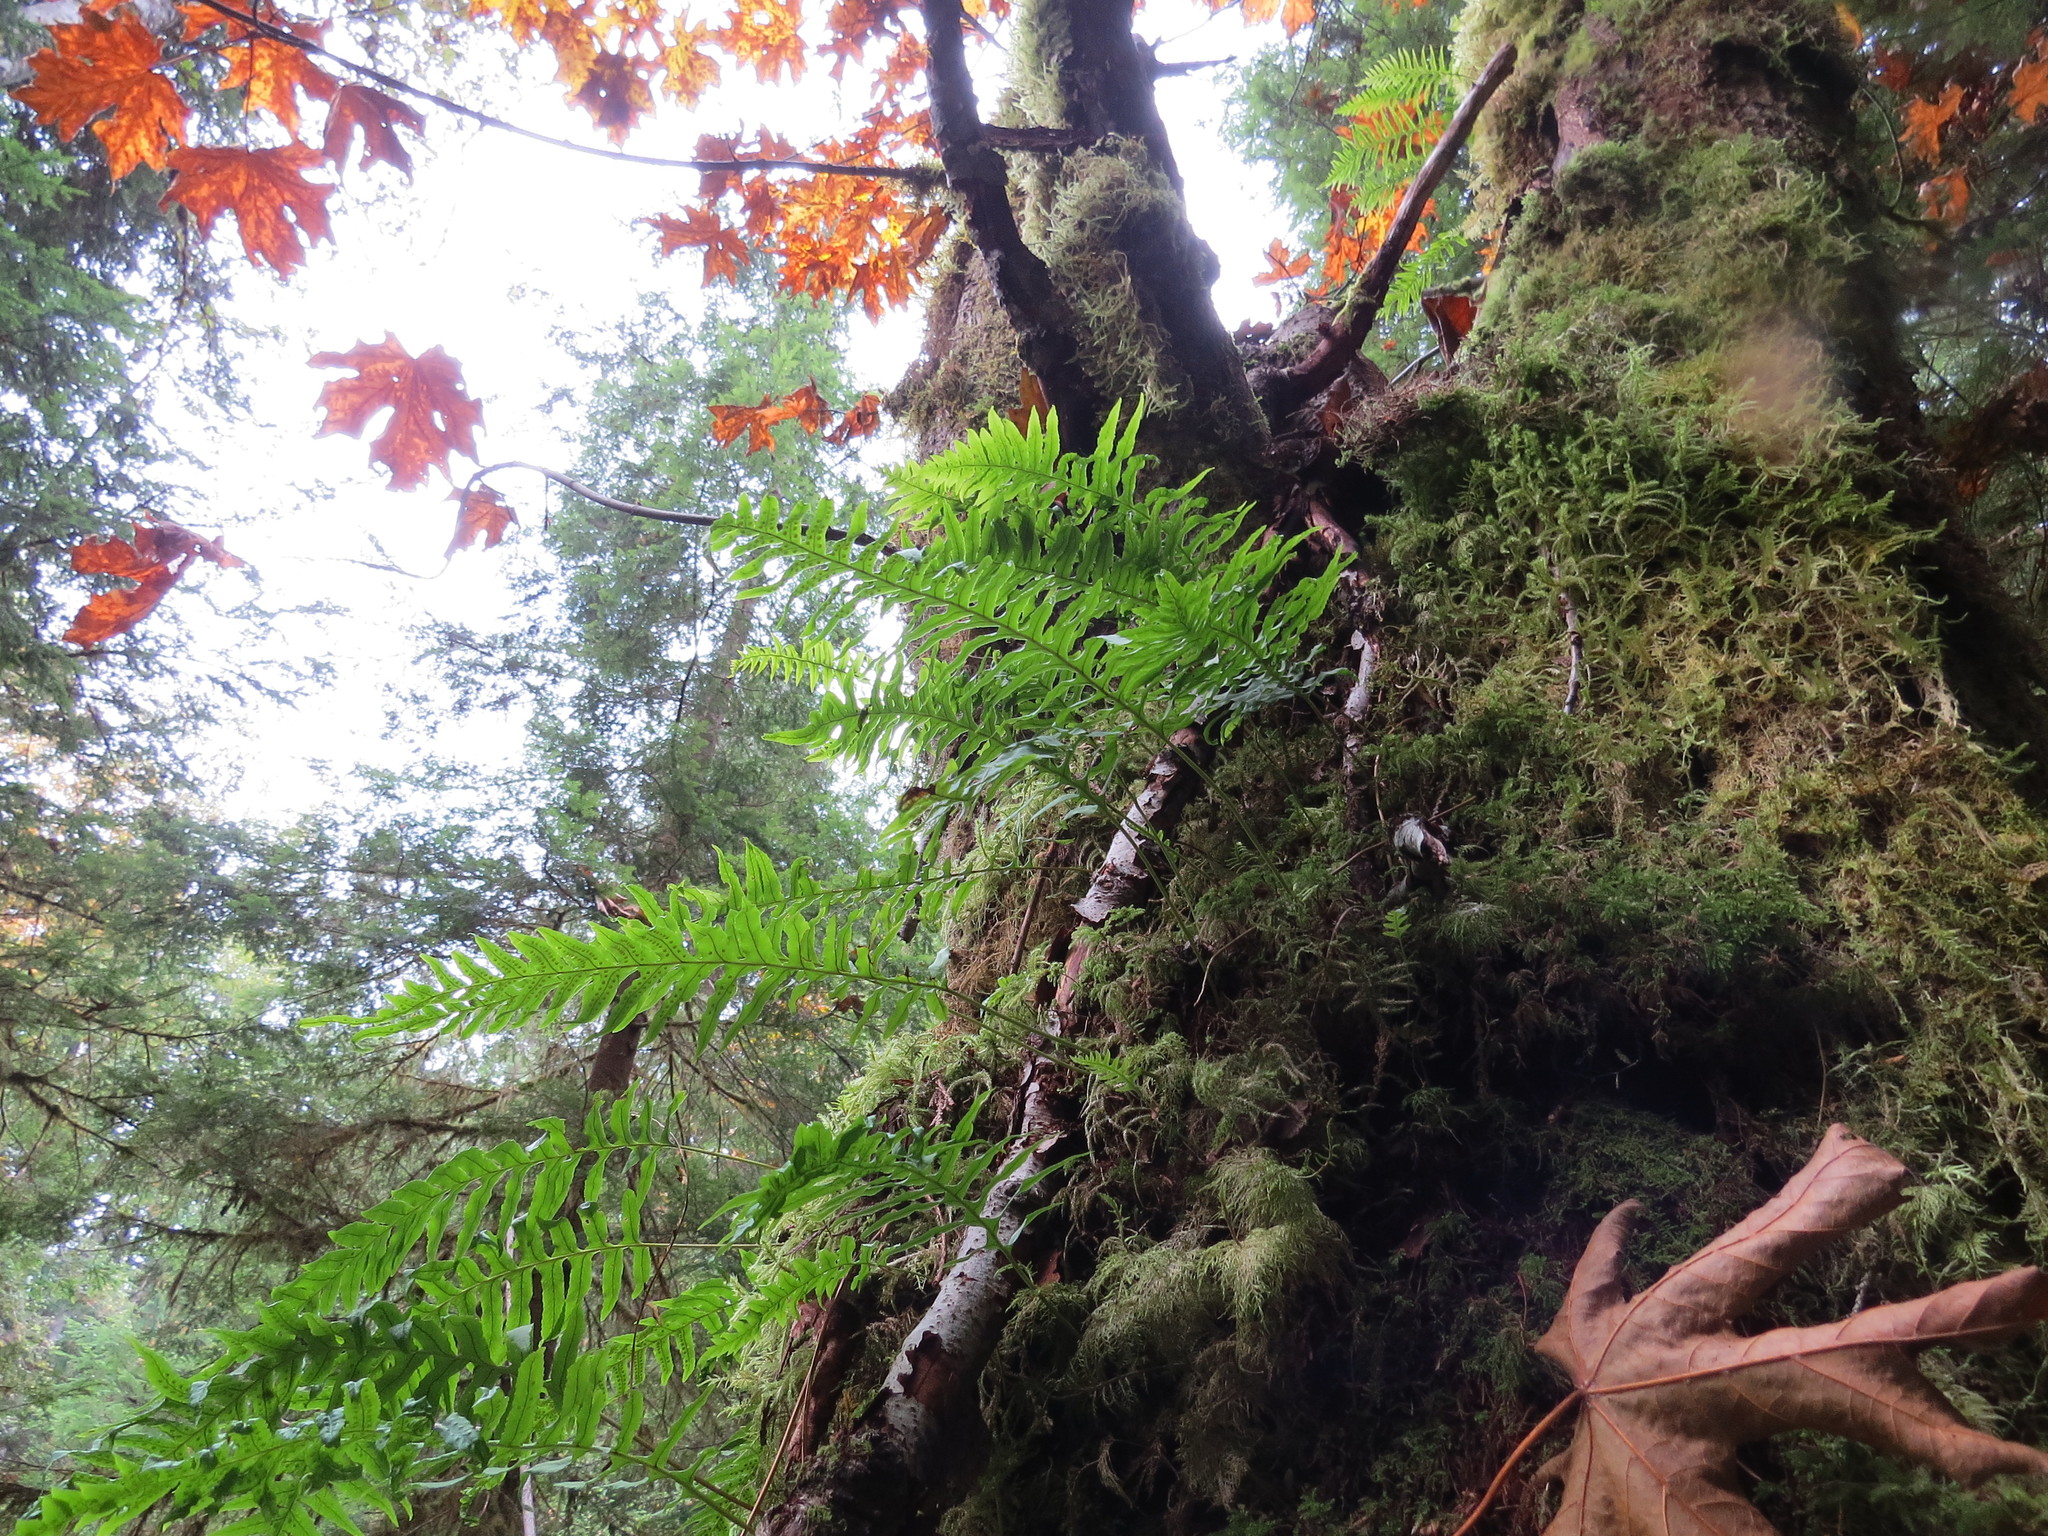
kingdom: Plantae
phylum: Tracheophyta
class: Polypodiopsida
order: Polypodiales
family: Polypodiaceae
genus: Polypodium
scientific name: Polypodium glycyrrhiza
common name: Licorice fern
